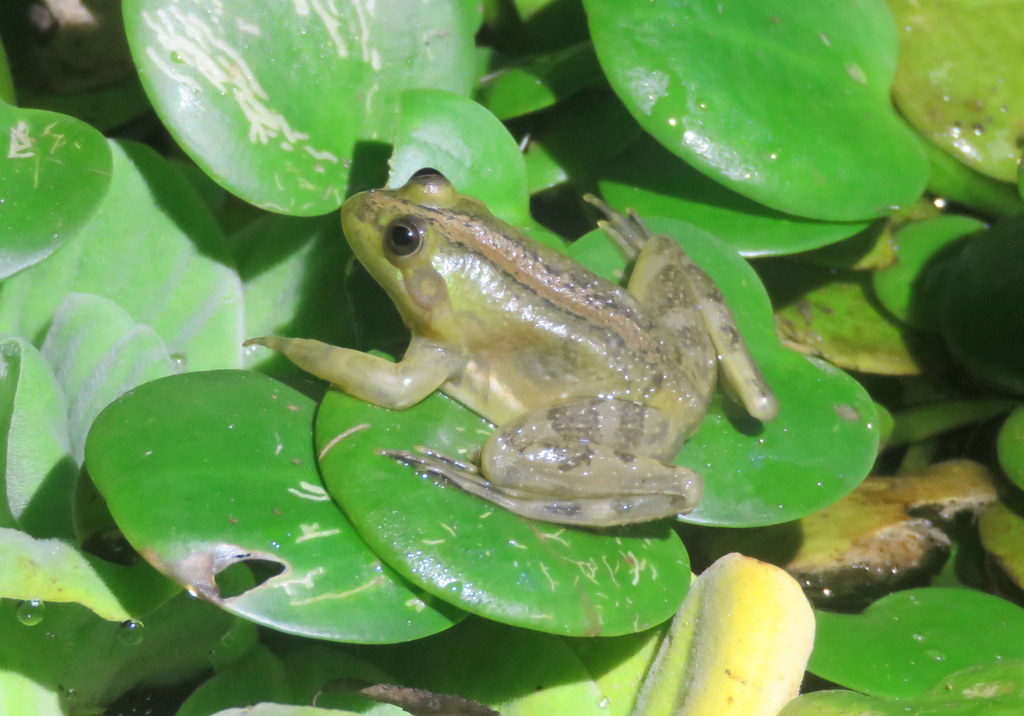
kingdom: Animalia
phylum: Chordata
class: Amphibia
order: Anura
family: Hylidae
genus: Pseudis
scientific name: Pseudis minuta
